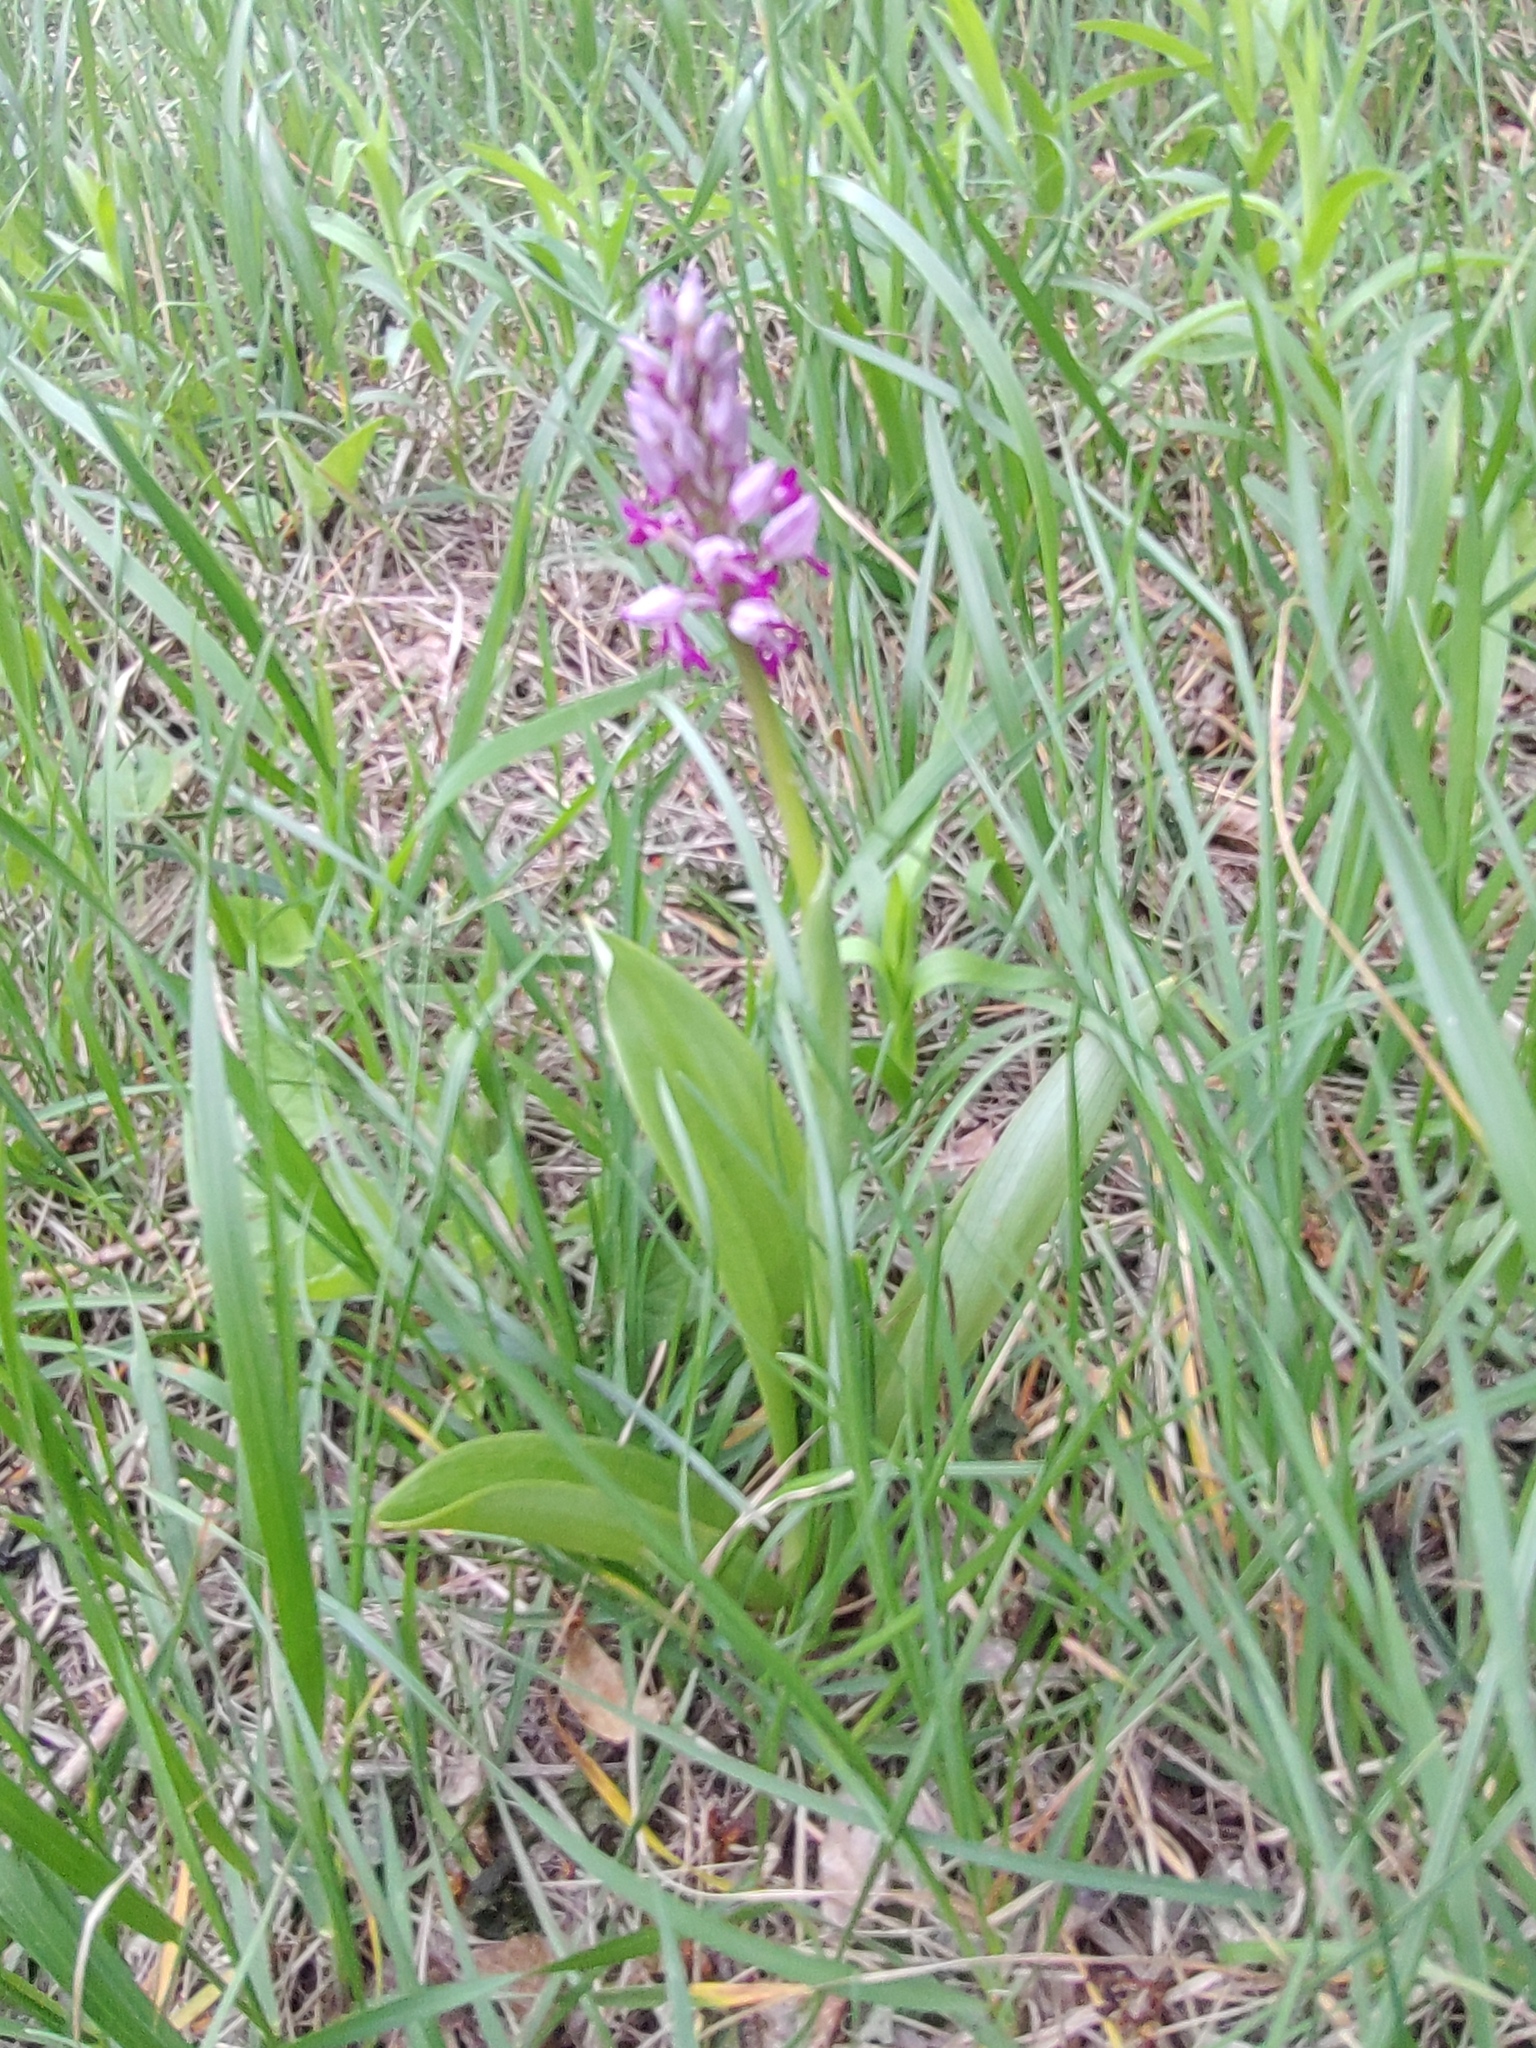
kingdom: Plantae
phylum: Tracheophyta
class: Liliopsida
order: Asparagales
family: Orchidaceae
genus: Orchis
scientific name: Orchis militaris
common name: Military orchid
